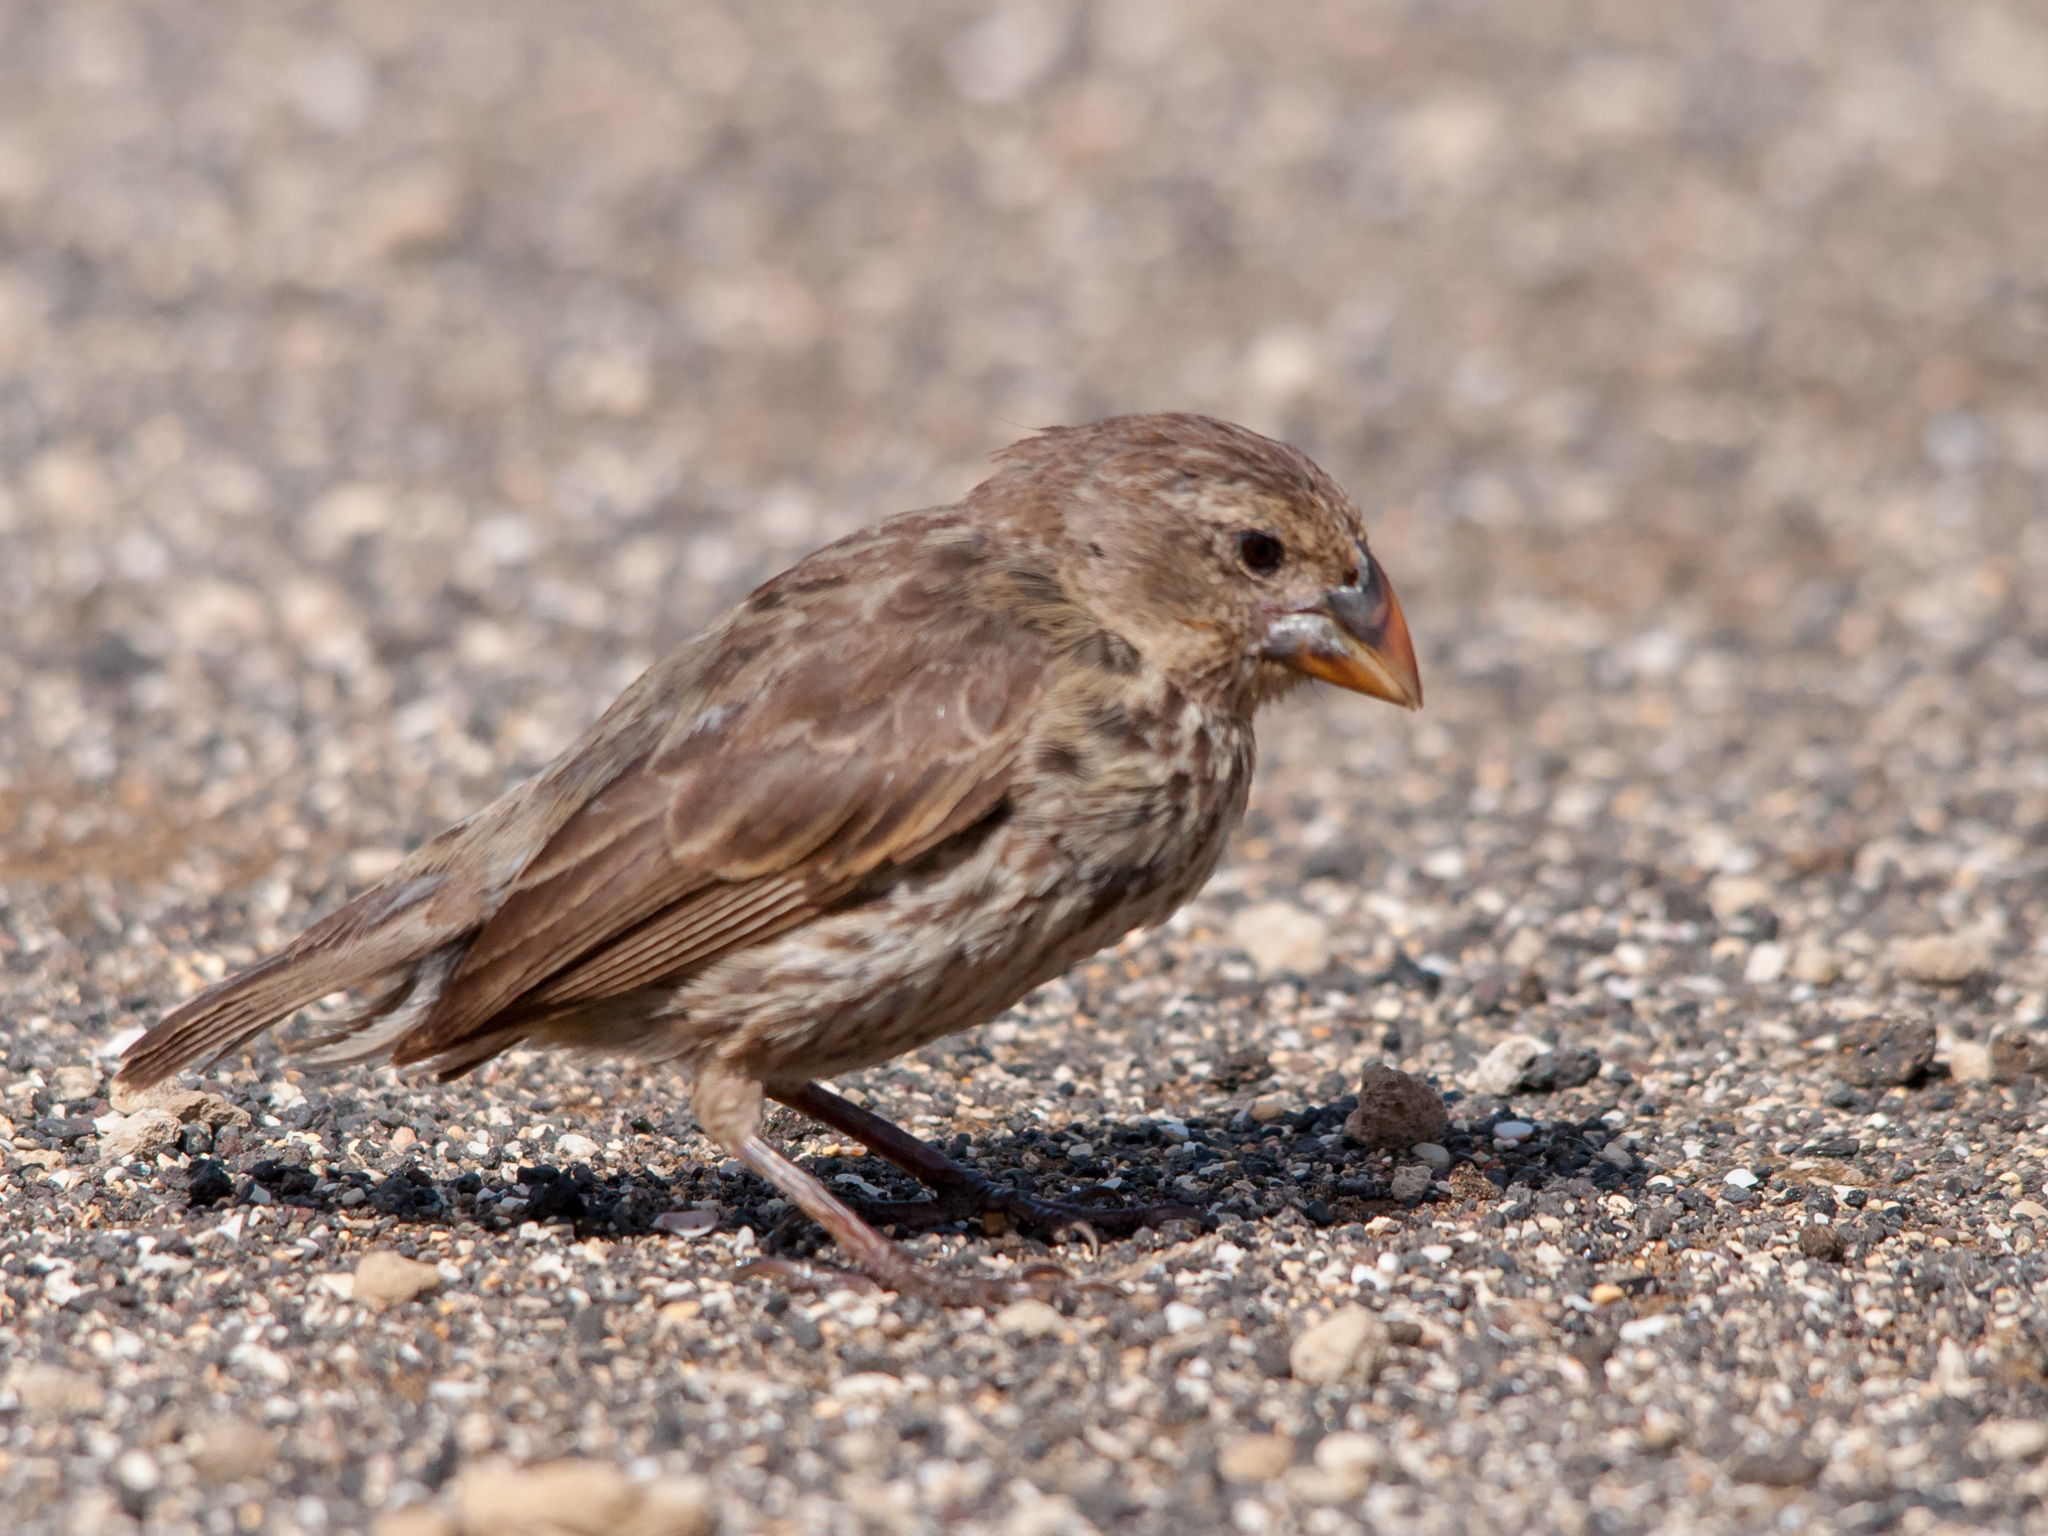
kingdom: Animalia
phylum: Chordata
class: Aves
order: Passeriformes
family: Thraupidae
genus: Geospiza
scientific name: Geospiza fortis
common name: Medium ground finch
